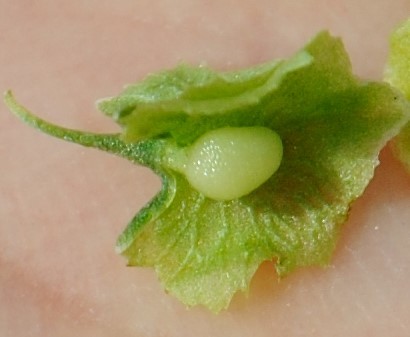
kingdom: Plantae
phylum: Tracheophyta
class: Magnoliopsida
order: Caryophyllales
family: Polygonaceae
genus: Rumex
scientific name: Rumex cristatus
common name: Greek dock
